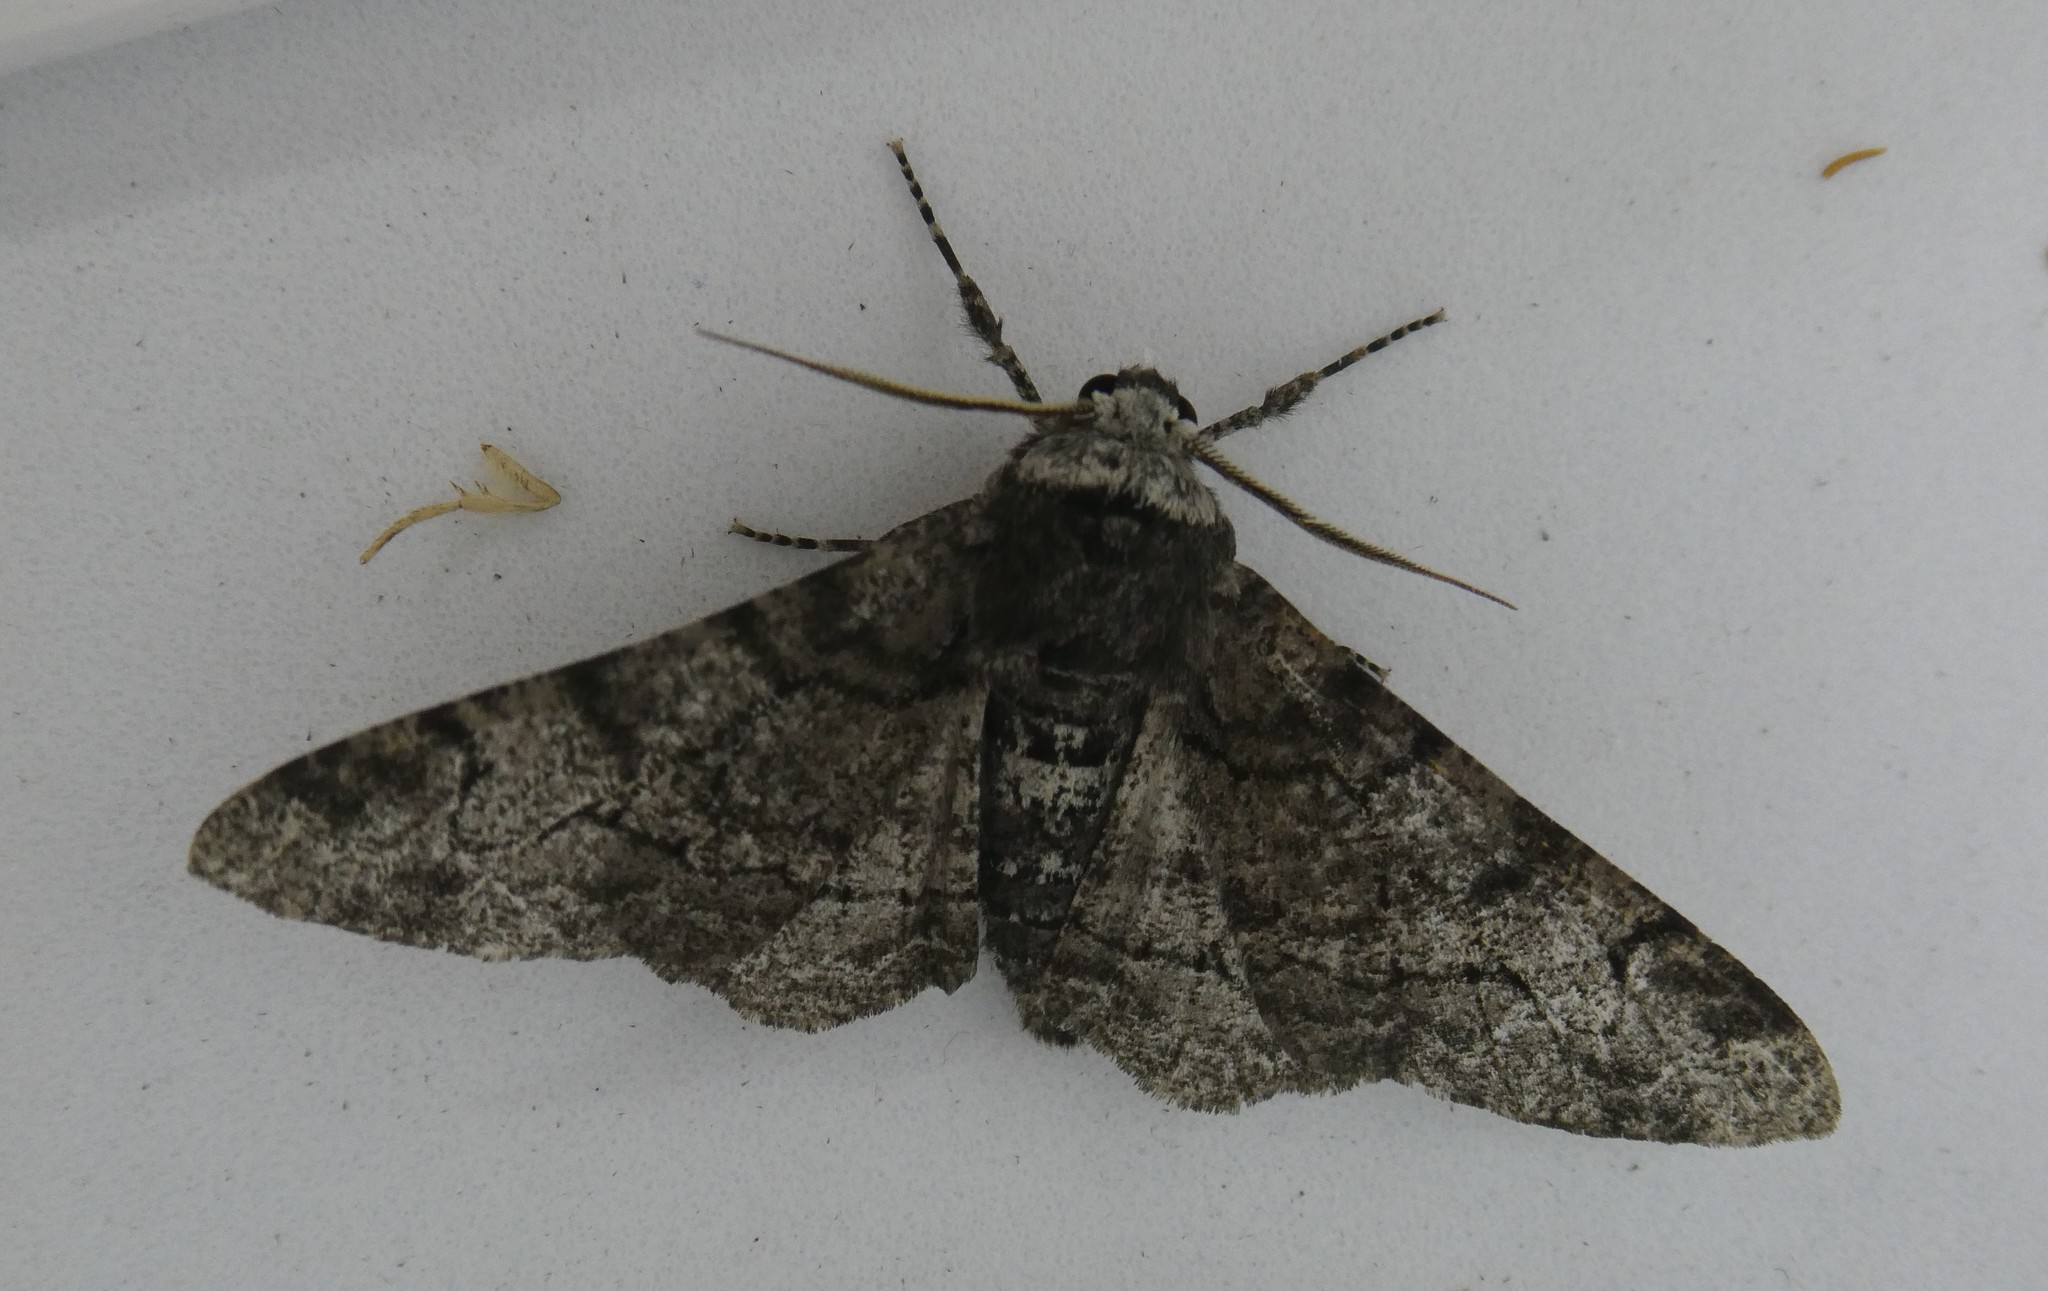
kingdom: Animalia
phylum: Arthropoda
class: Insecta
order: Lepidoptera
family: Geometridae
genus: Biston
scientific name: Biston betularia
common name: Peppered moth
